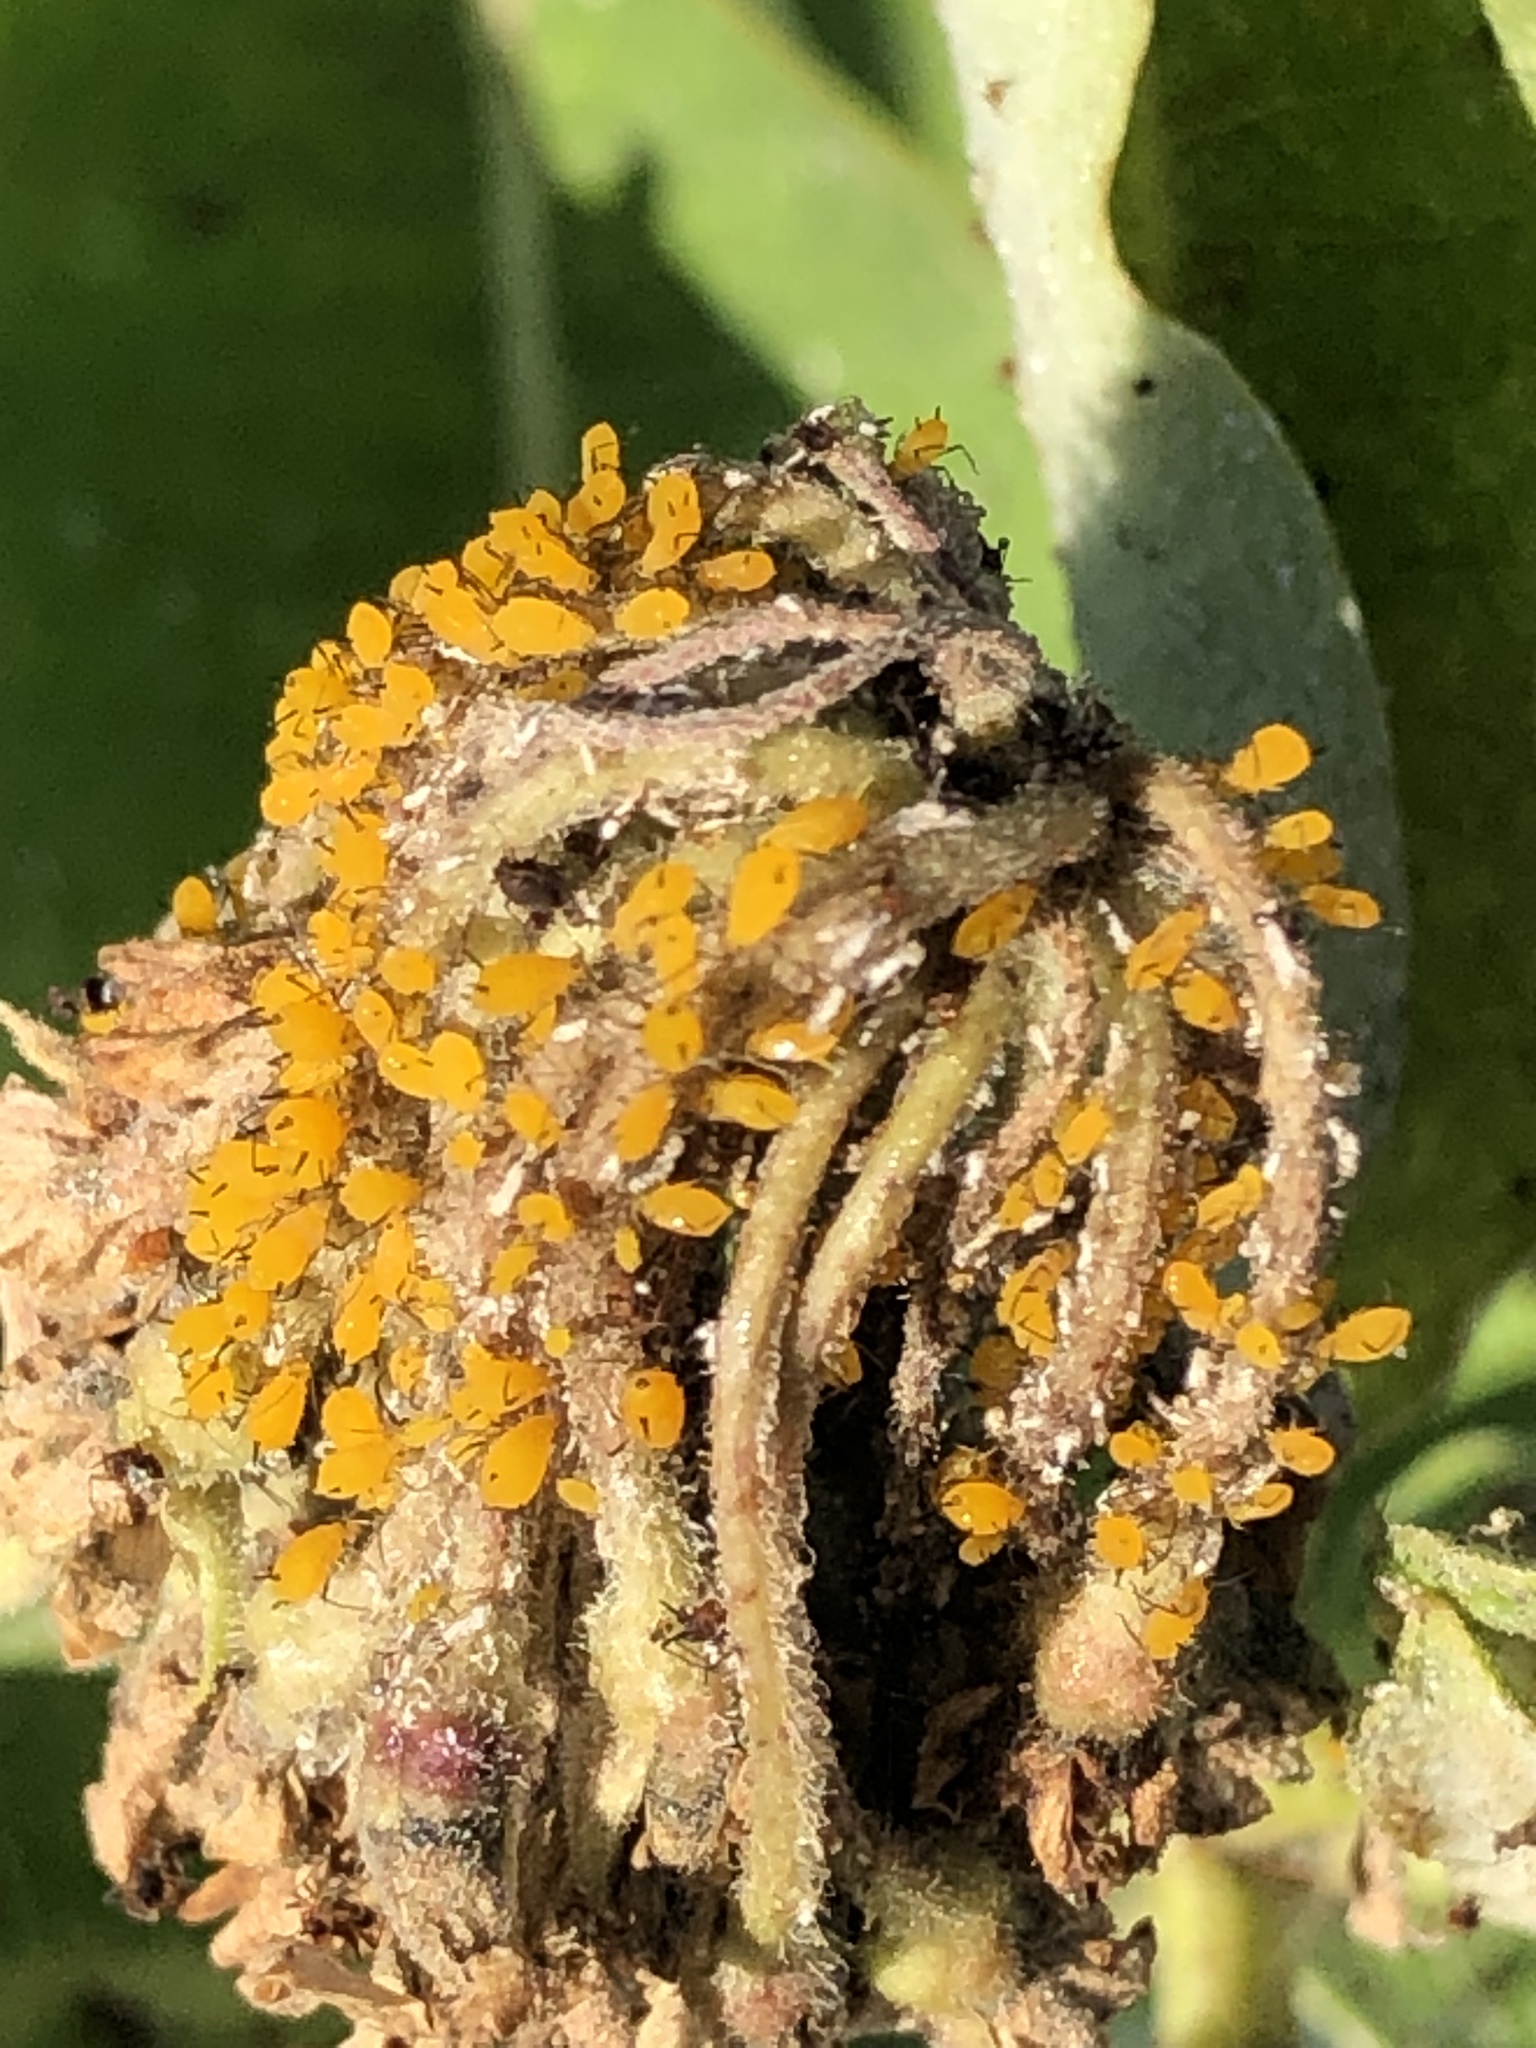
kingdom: Animalia
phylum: Arthropoda
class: Insecta
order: Hemiptera
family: Aphididae
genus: Aphis
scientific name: Aphis nerii
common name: Oleander aphid
